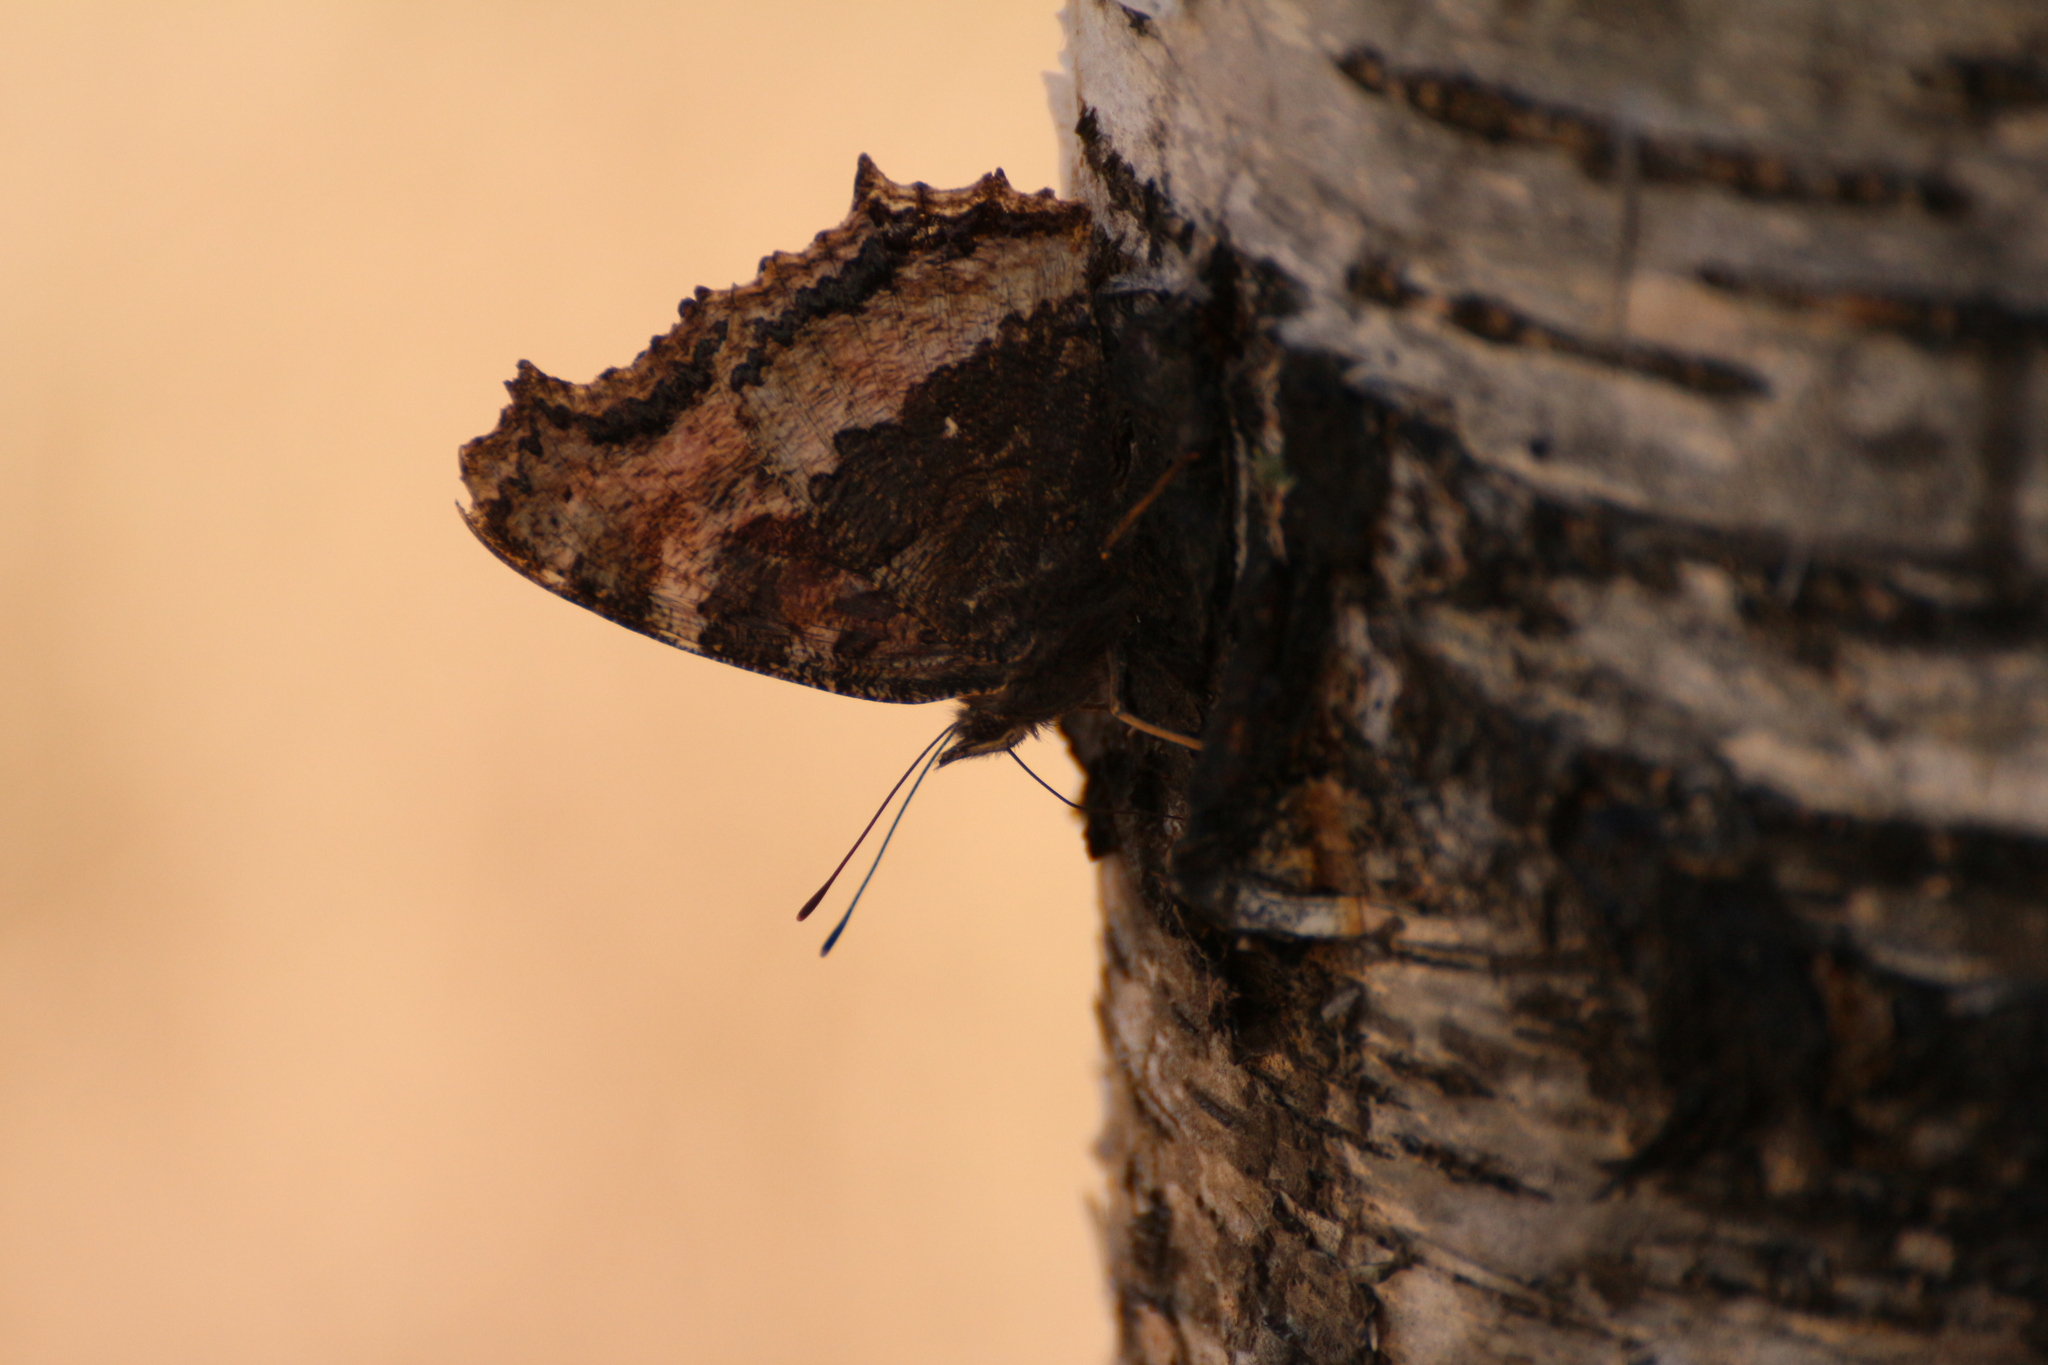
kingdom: Animalia
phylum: Arthropoda
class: Insecta
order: Lepidoptera
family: Nymphalidae
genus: Nymphalis
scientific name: Nymphalis xanthomelas
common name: Scarce tortoiseshell
